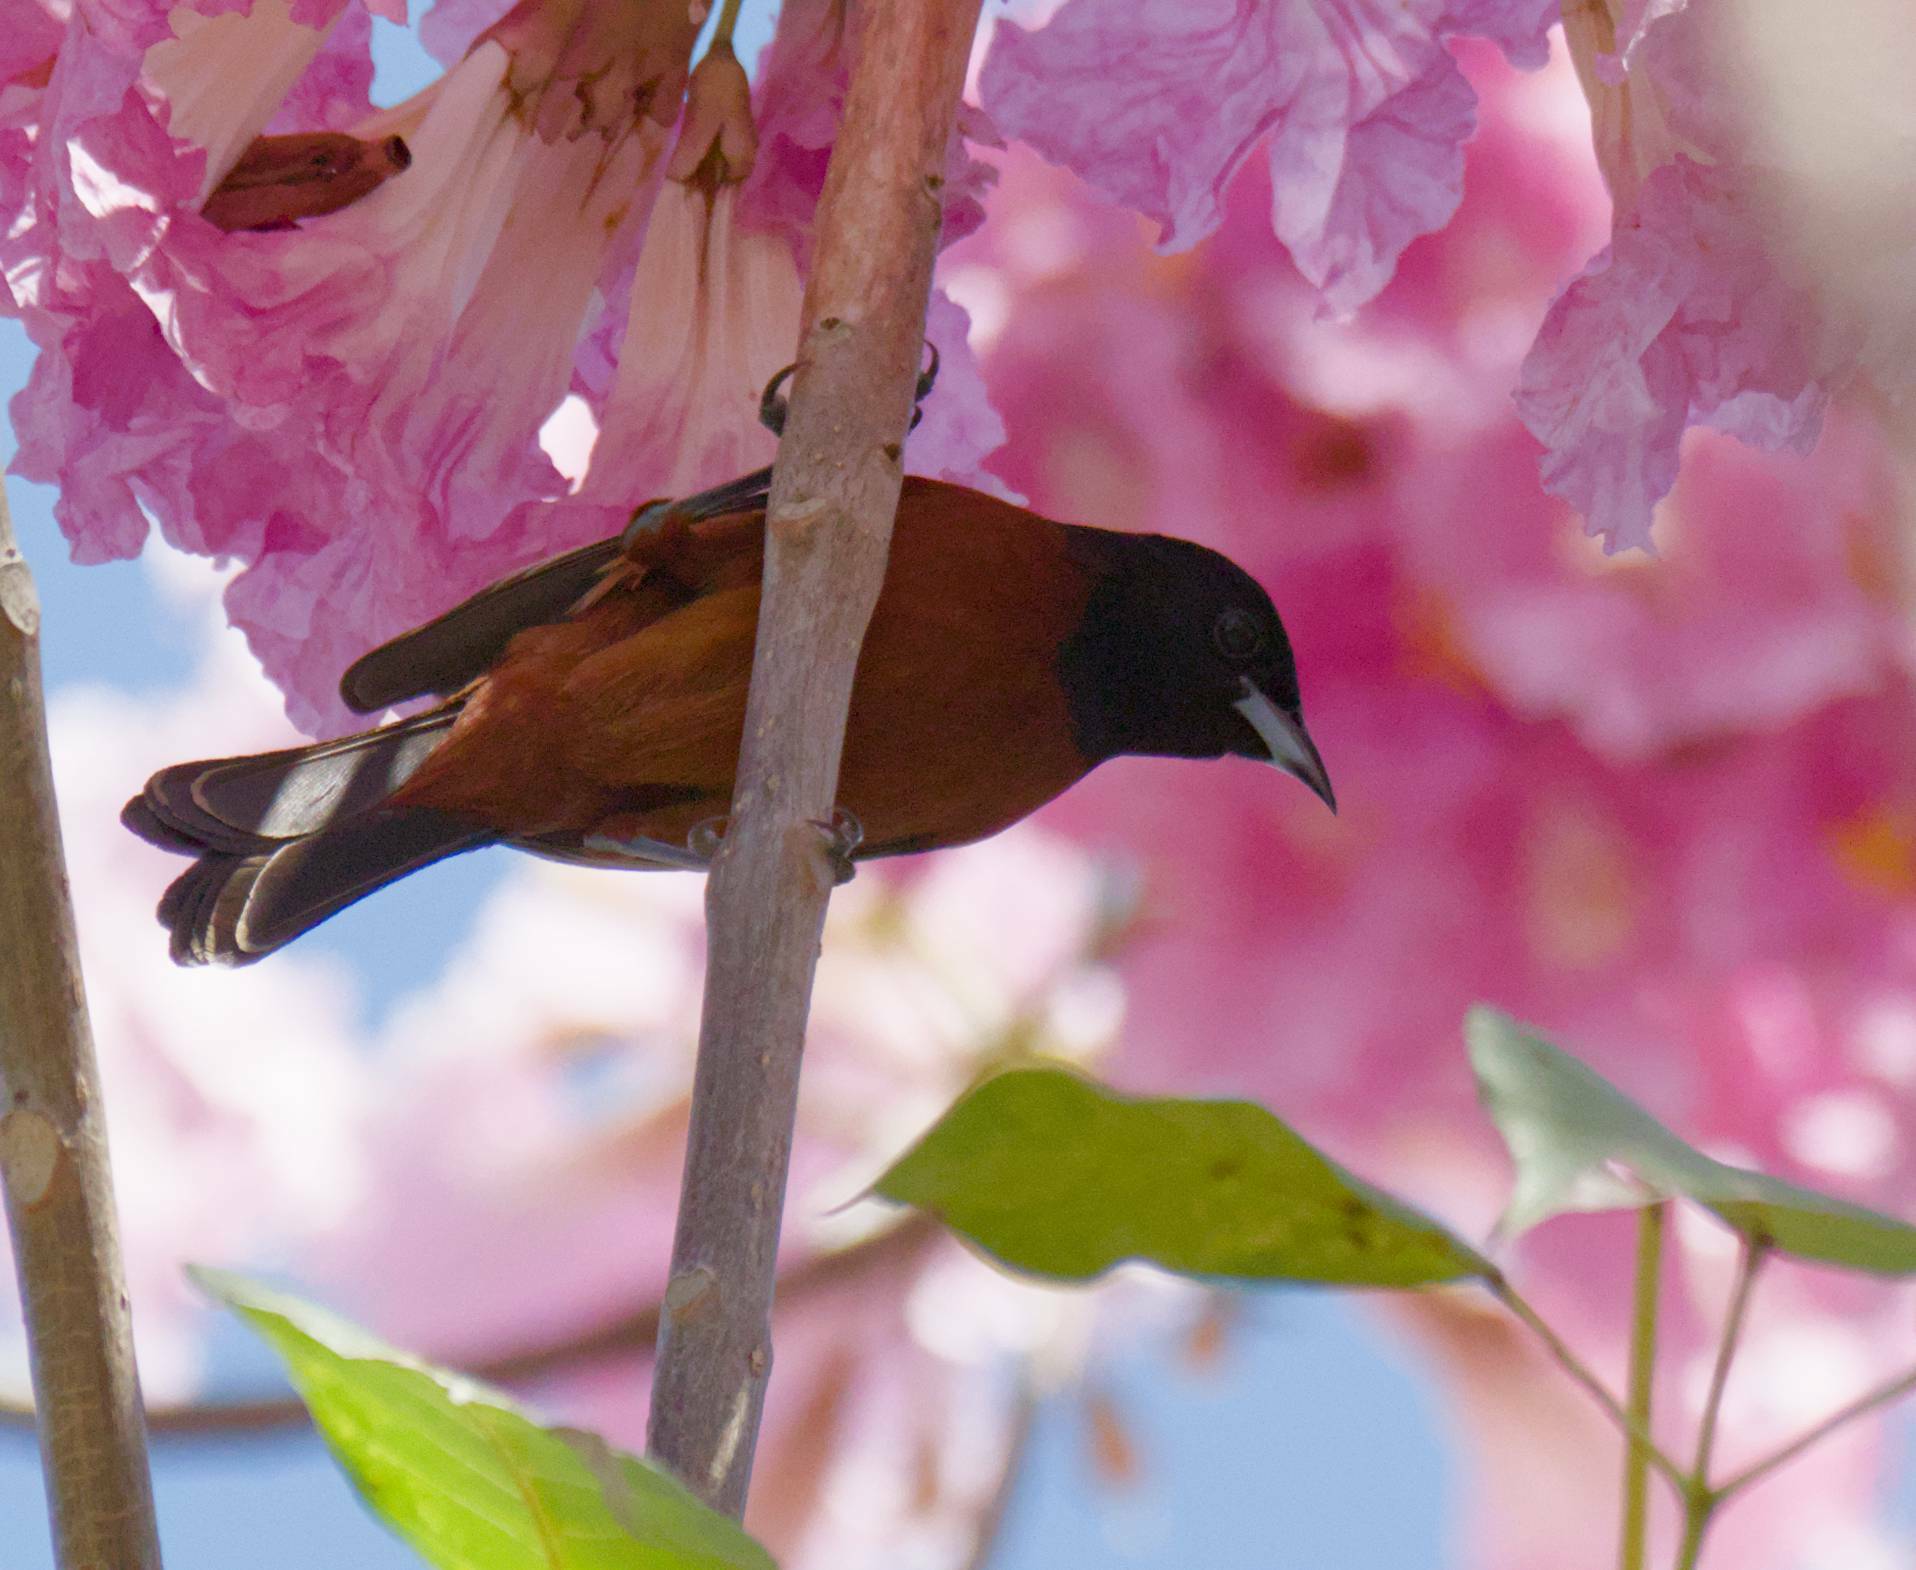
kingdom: Animalia
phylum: Chordata
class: Aves
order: Passeriformes
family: Icteridae
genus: Icterus
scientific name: Icterus spurius
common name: Orchard oriole
